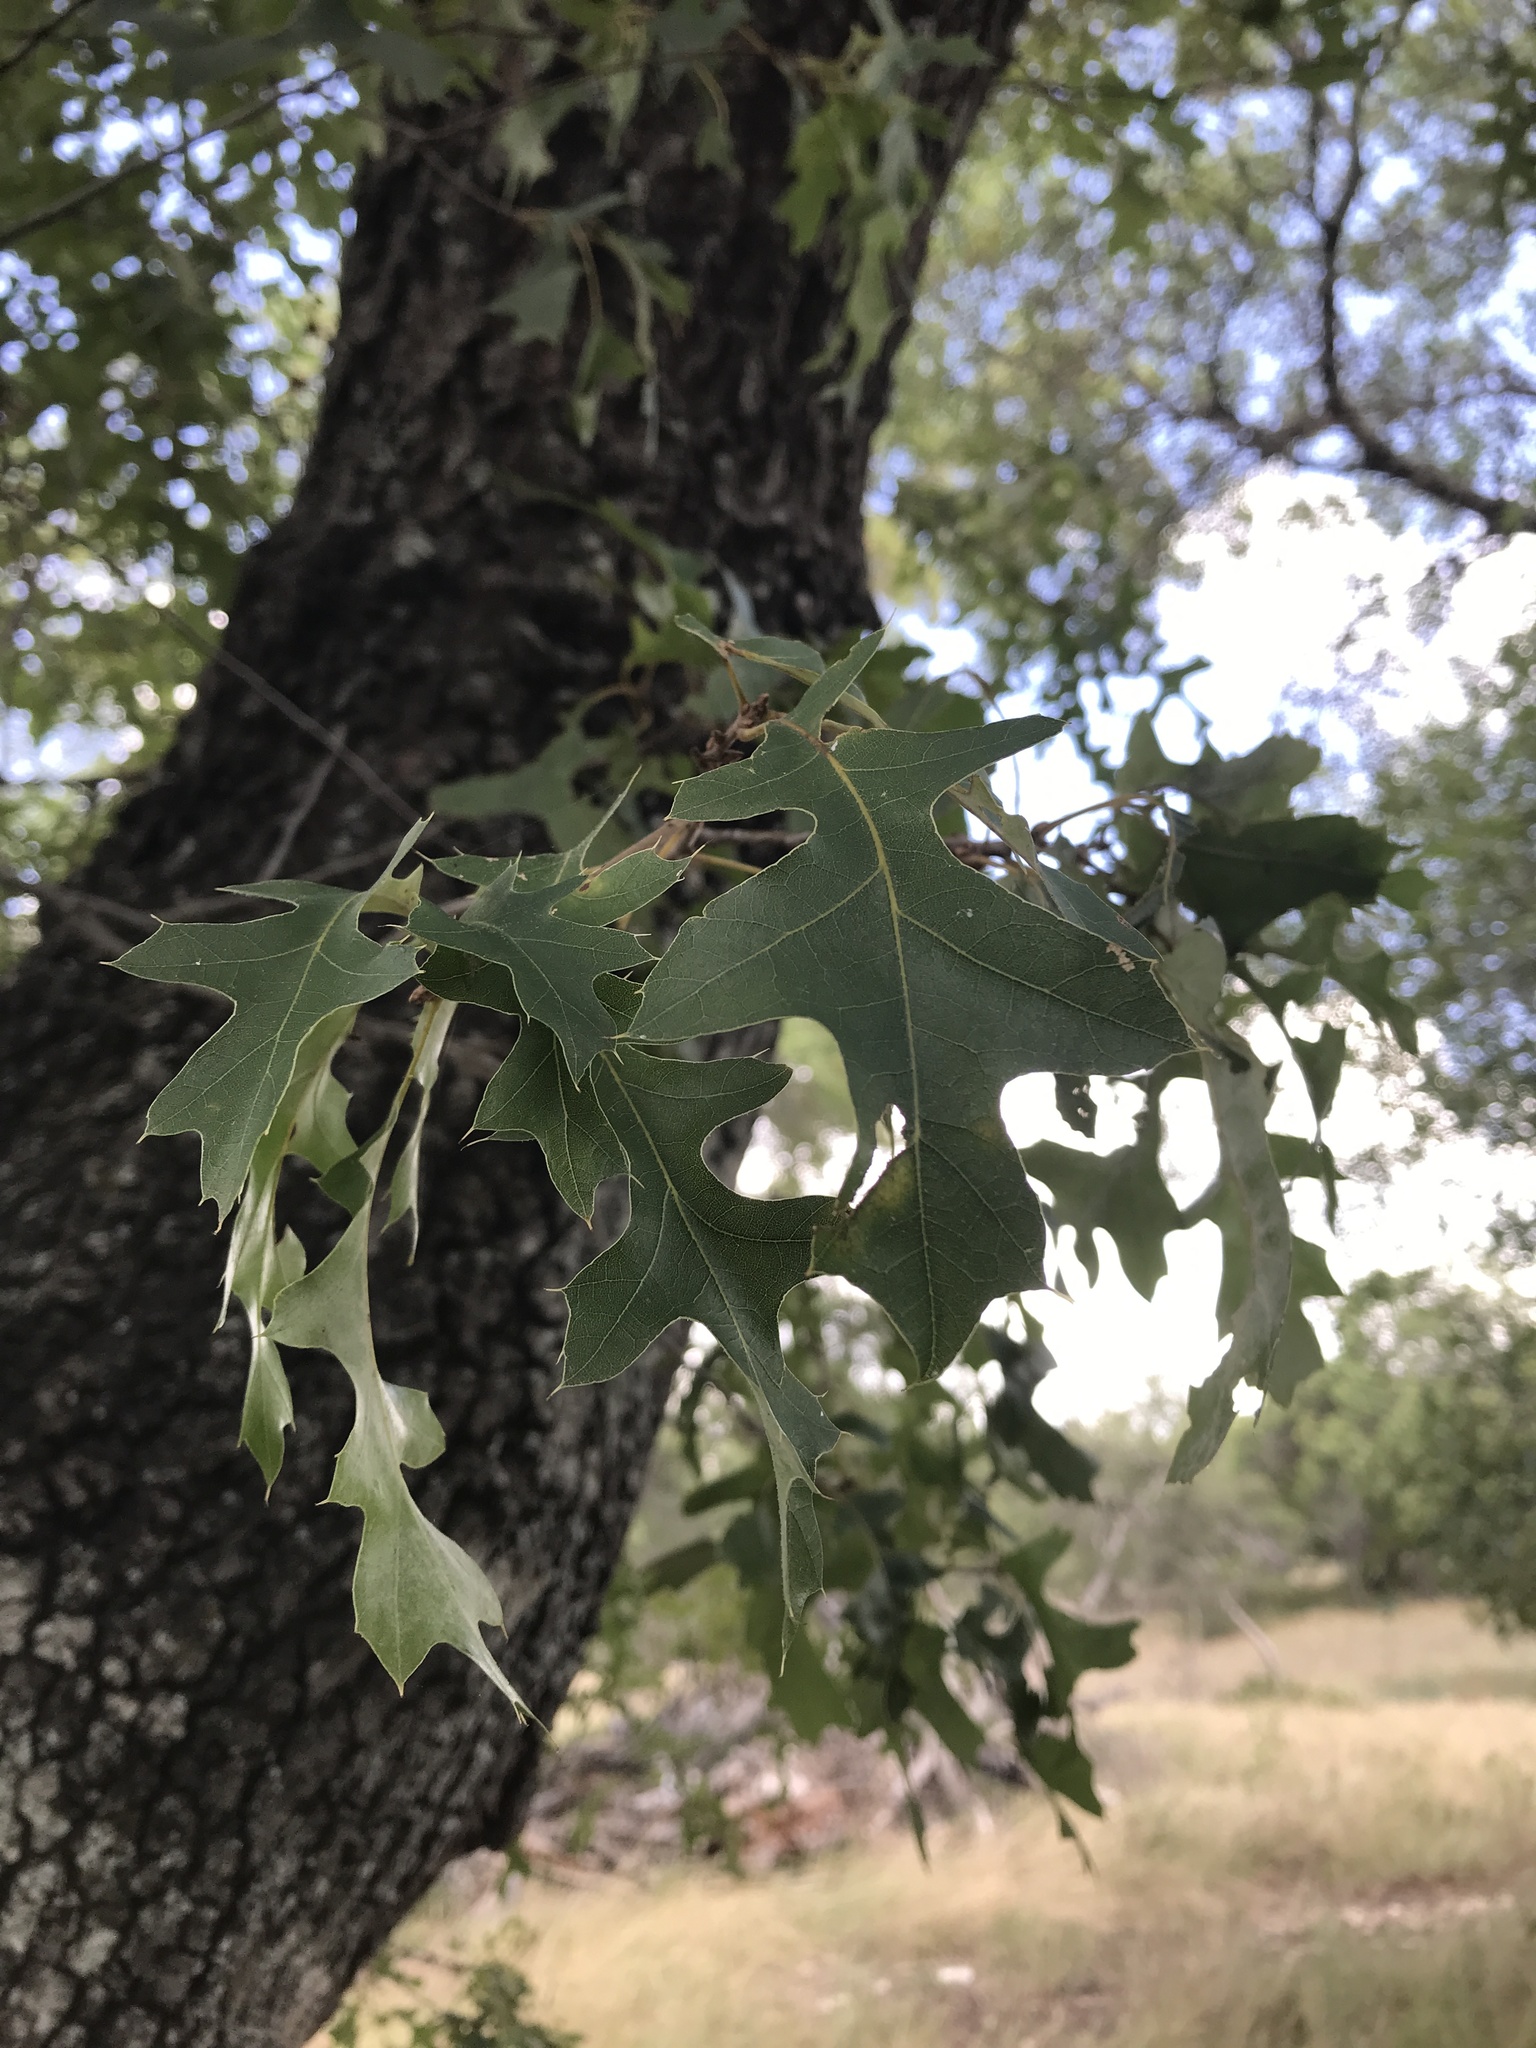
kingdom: Plantae
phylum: Tracheophyta
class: Magnoliopsida
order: Fagales
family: Fagaceae
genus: Quercus
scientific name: Quercus buckleyi
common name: Buckley oak
